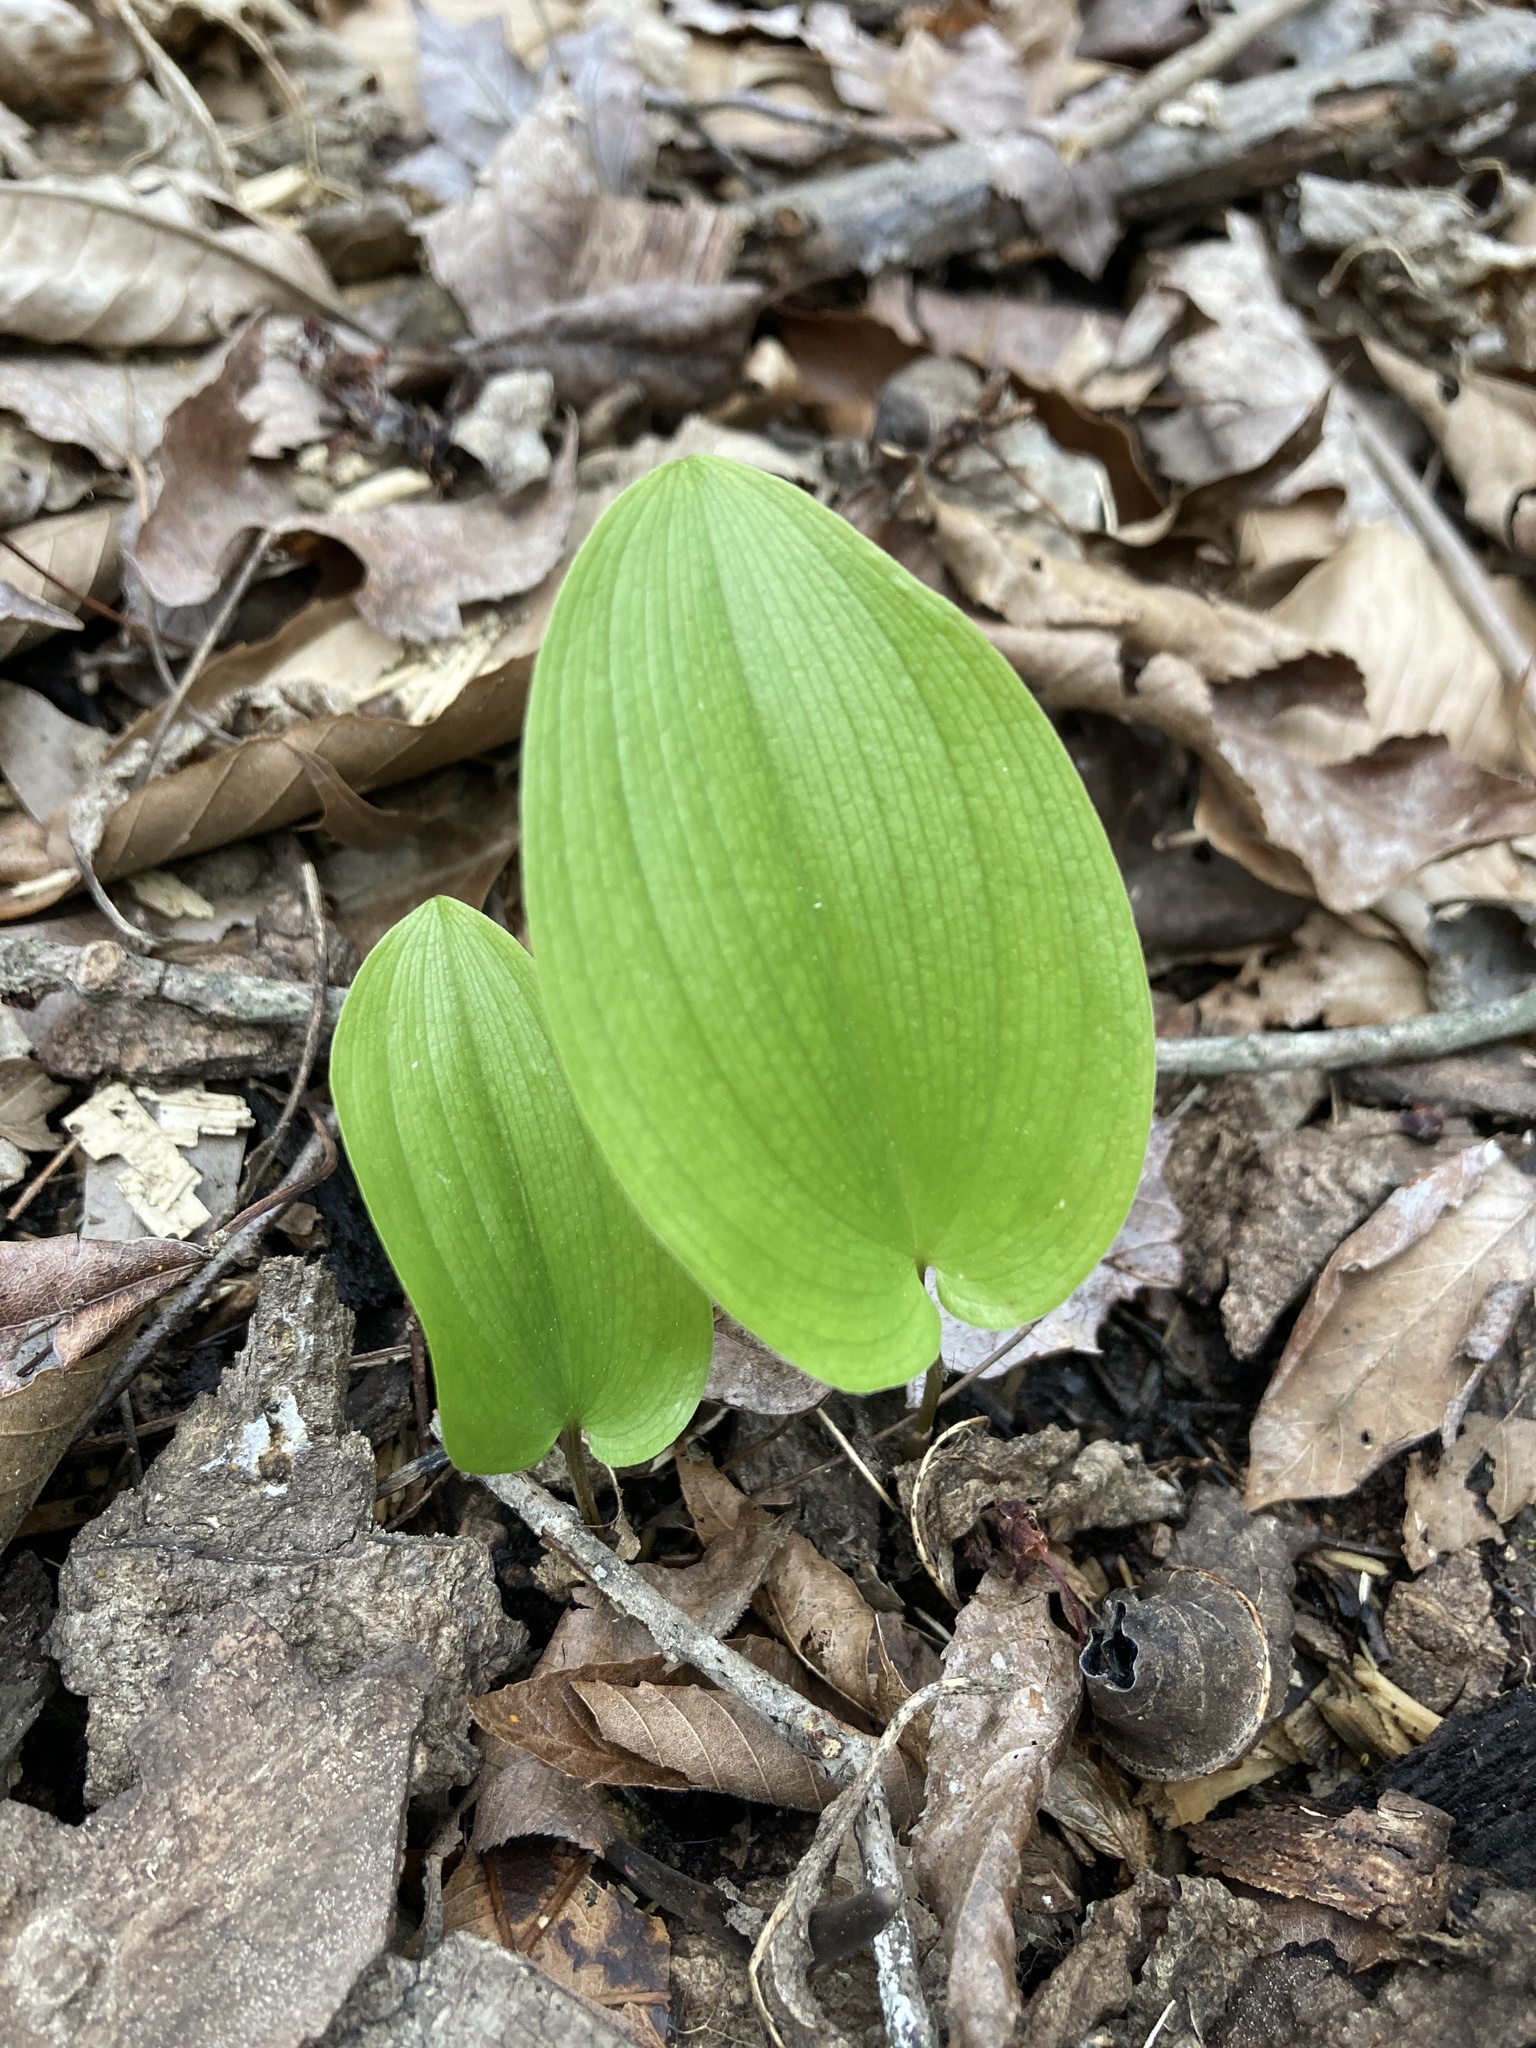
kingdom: Plantae
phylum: Tracheophyta
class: Liliopsida
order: Asparagales
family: Asparagaceae
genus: Maianthemum
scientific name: Maianthemum canadense
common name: False lily-of-the-valley
